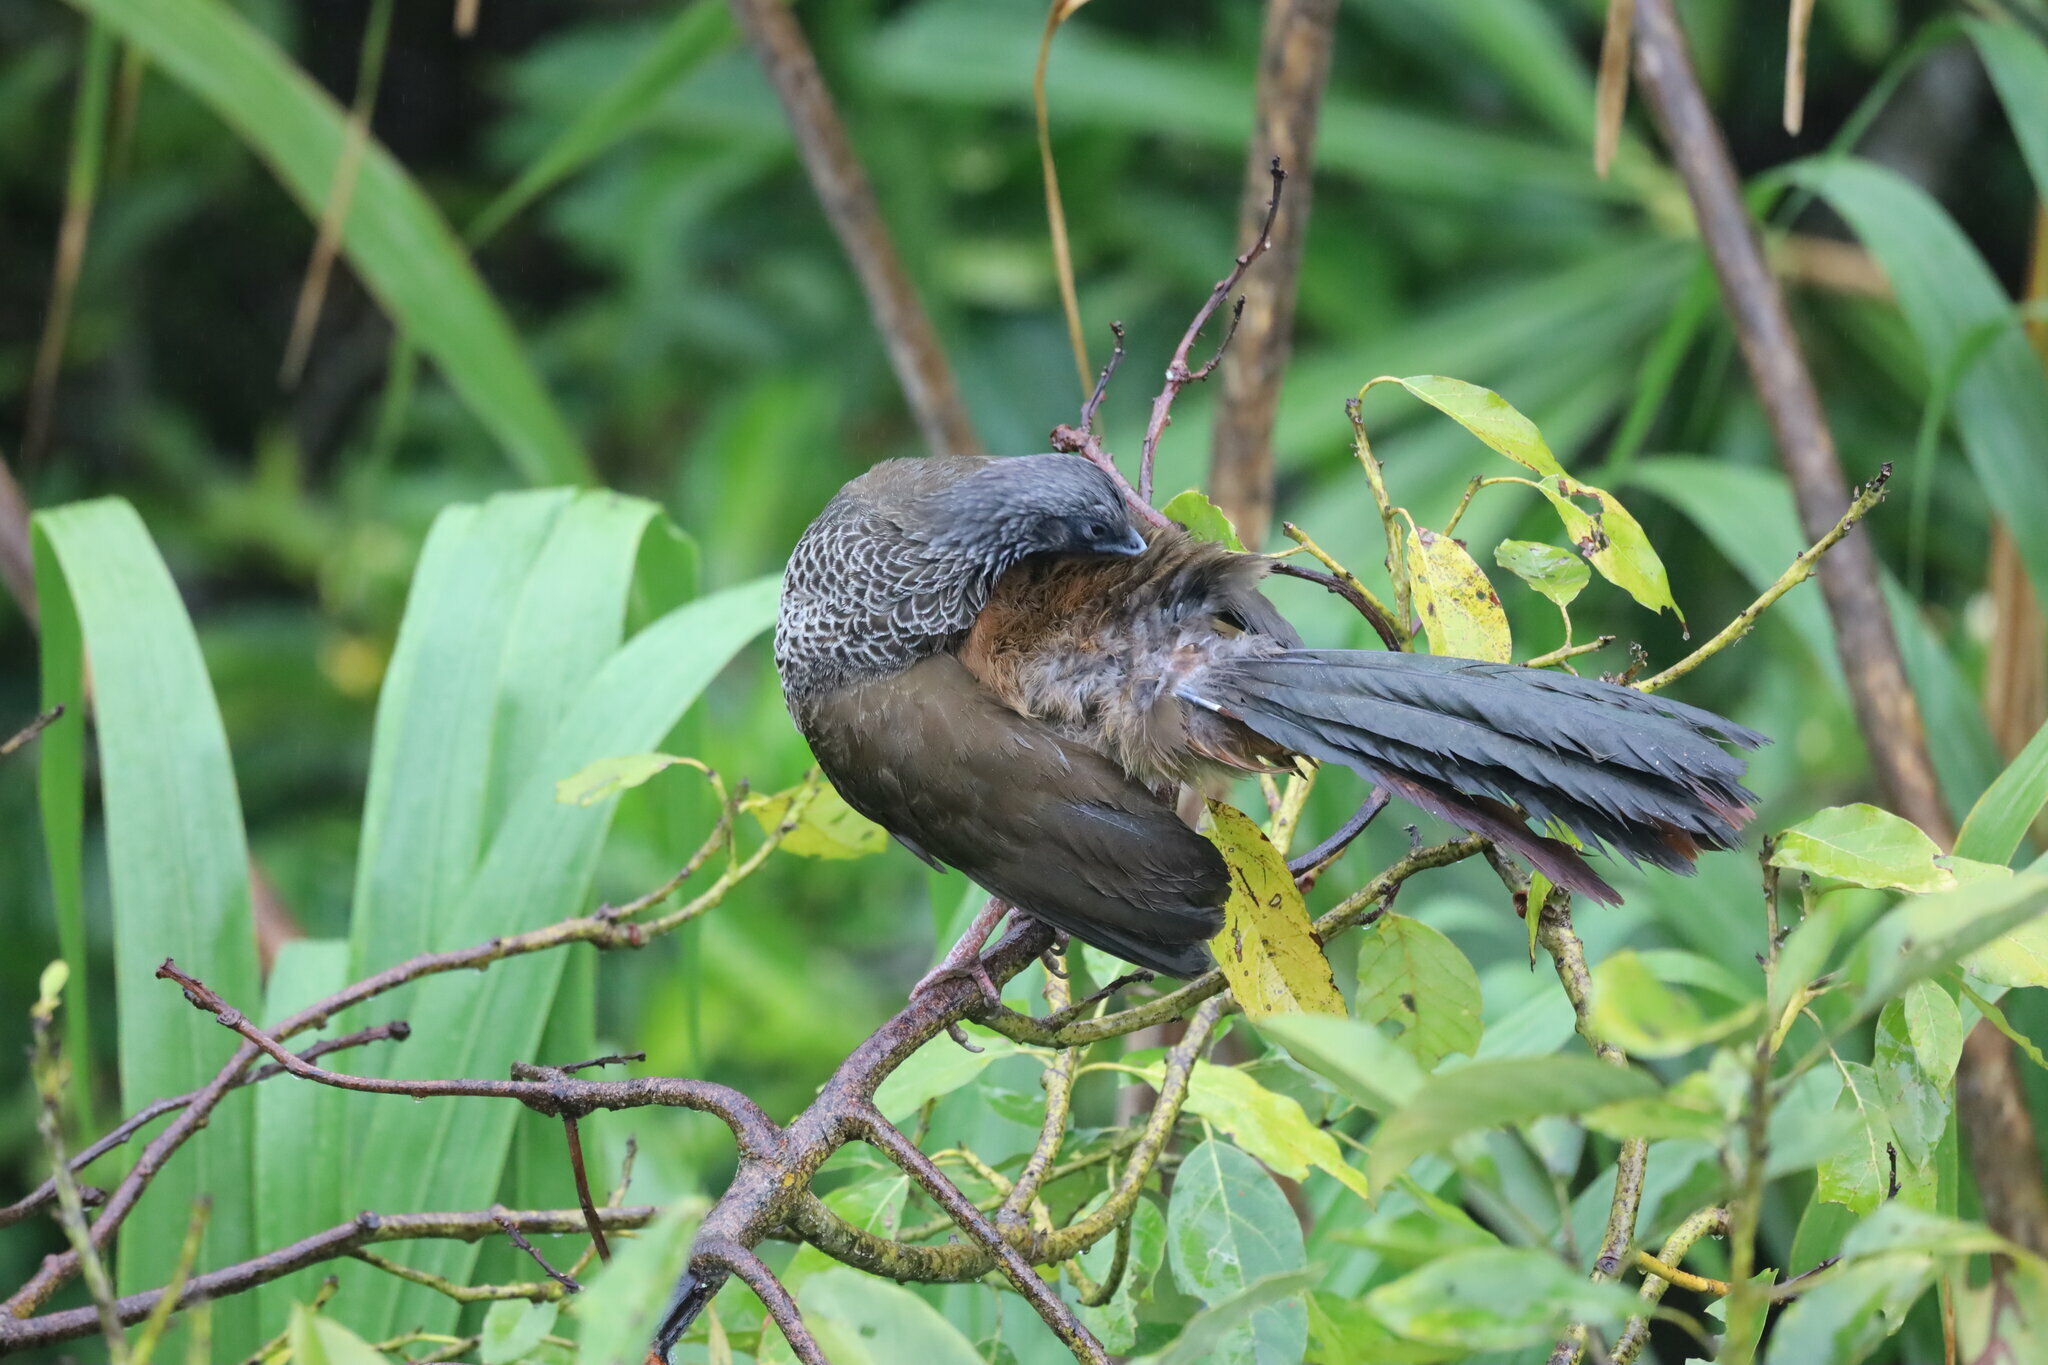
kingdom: Animalia
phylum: Chordata
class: Aves
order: Galliformes
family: Cracidae
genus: Ortalis
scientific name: Ortalis columbiana
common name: Colombian chachalaca
